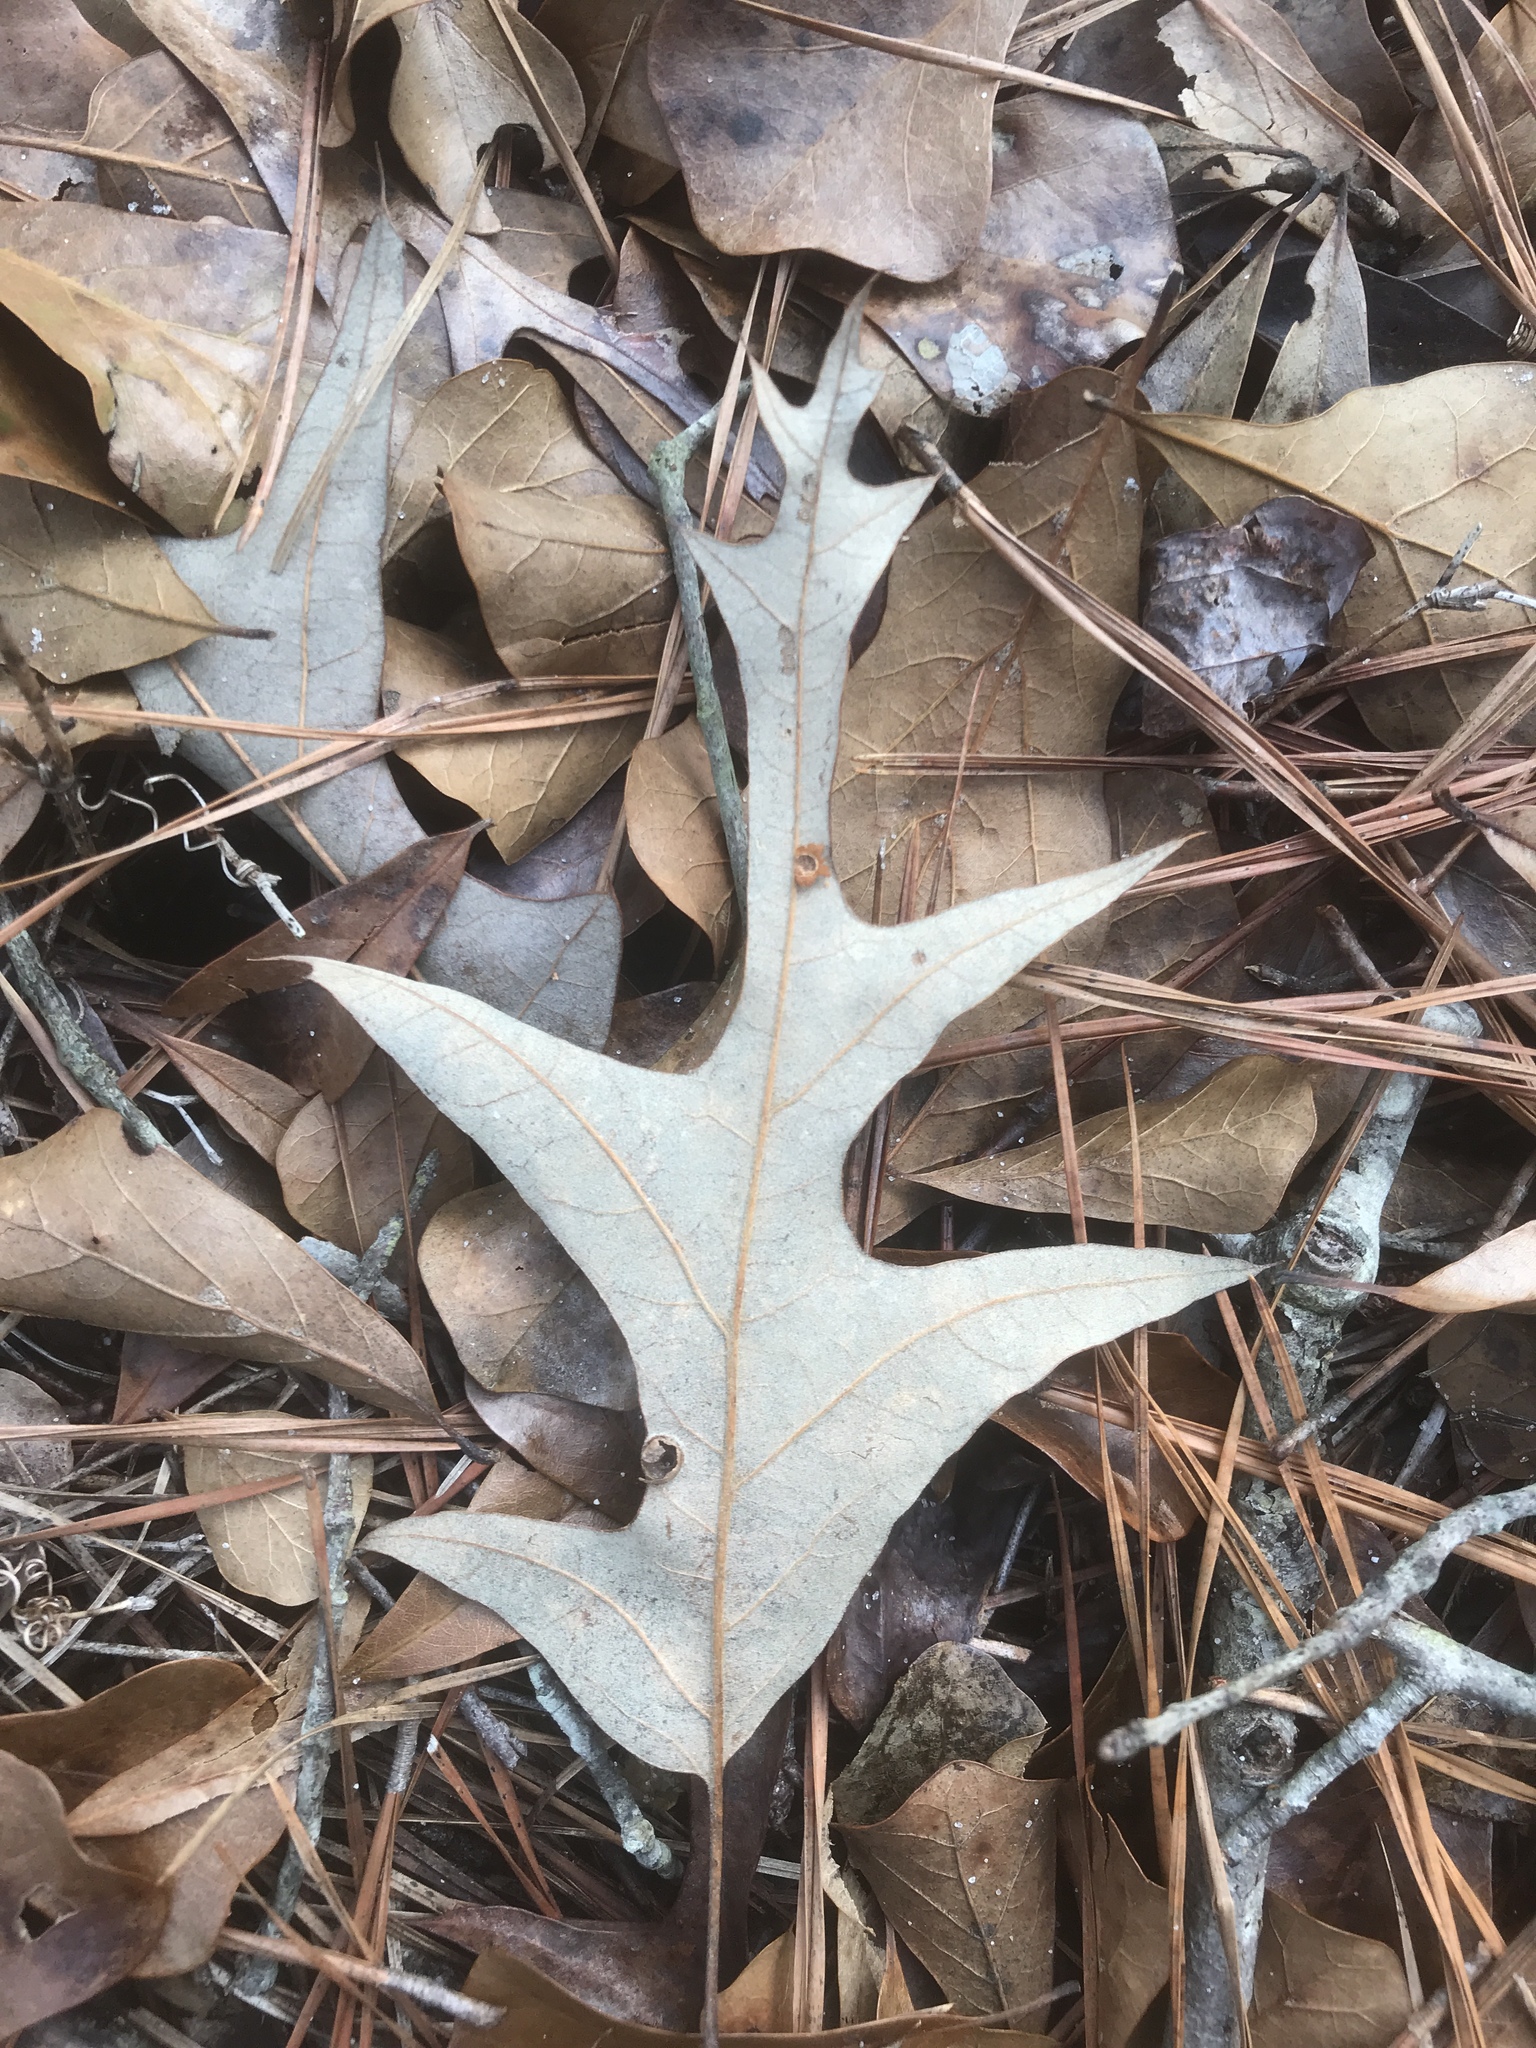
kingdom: Plantae
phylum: Tracheophyta
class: Magnoliopsida
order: Fagales
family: Fagaceae
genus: Quercus
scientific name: Quercus falcata
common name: Southern red oak
